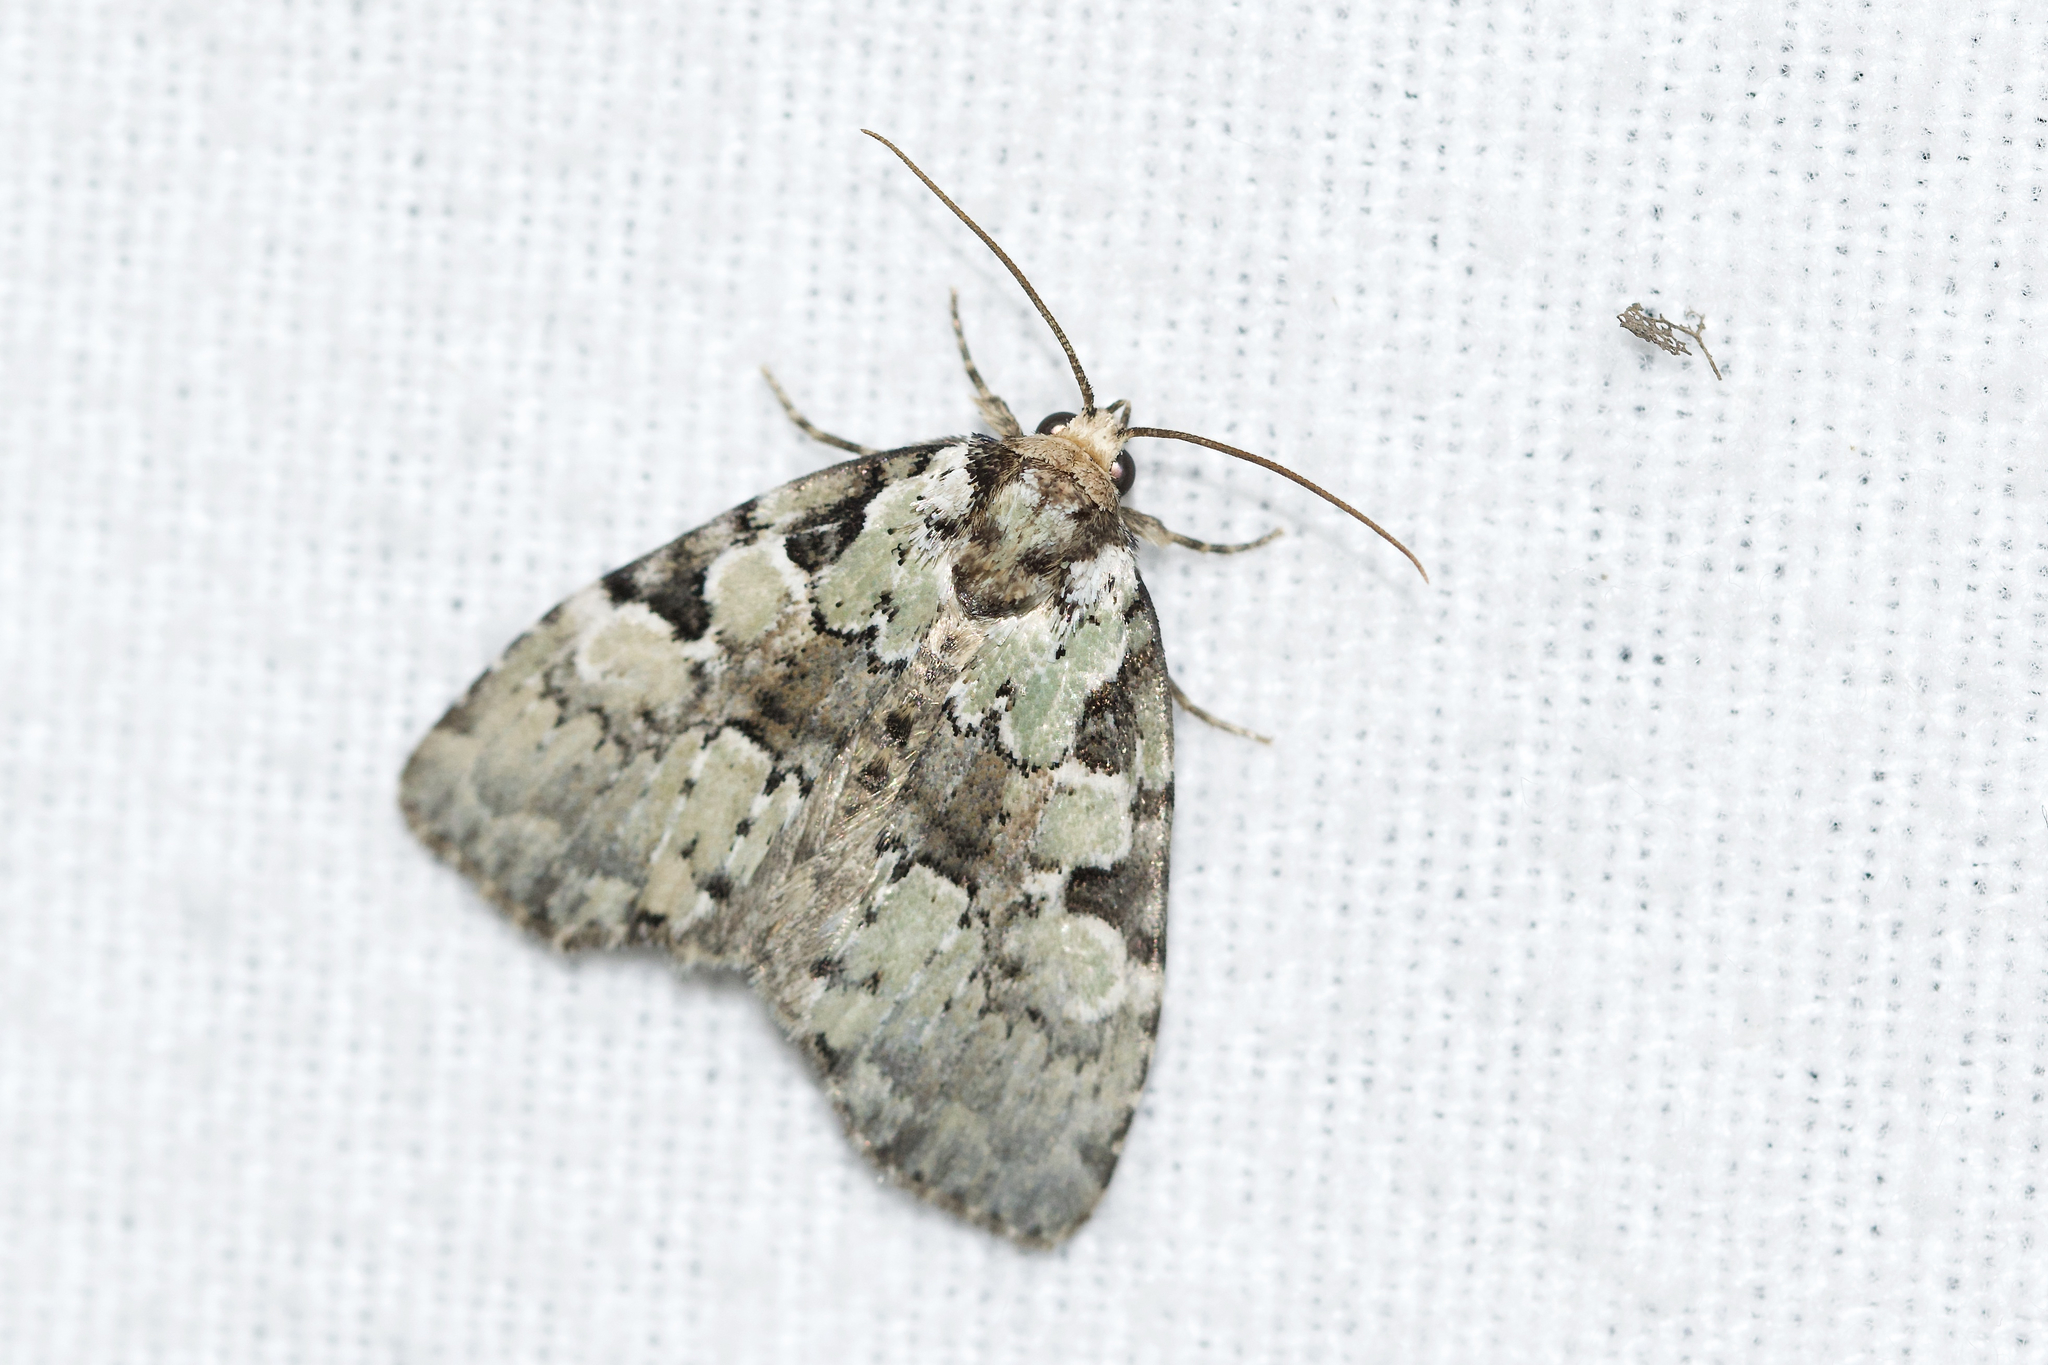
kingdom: Animalia
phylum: Arthropoda
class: Insecta
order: Lepidoptera
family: Noctuidae
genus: Leuconycta
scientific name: Leuconycta lepidula
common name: Marbled-green leuconycta moth
